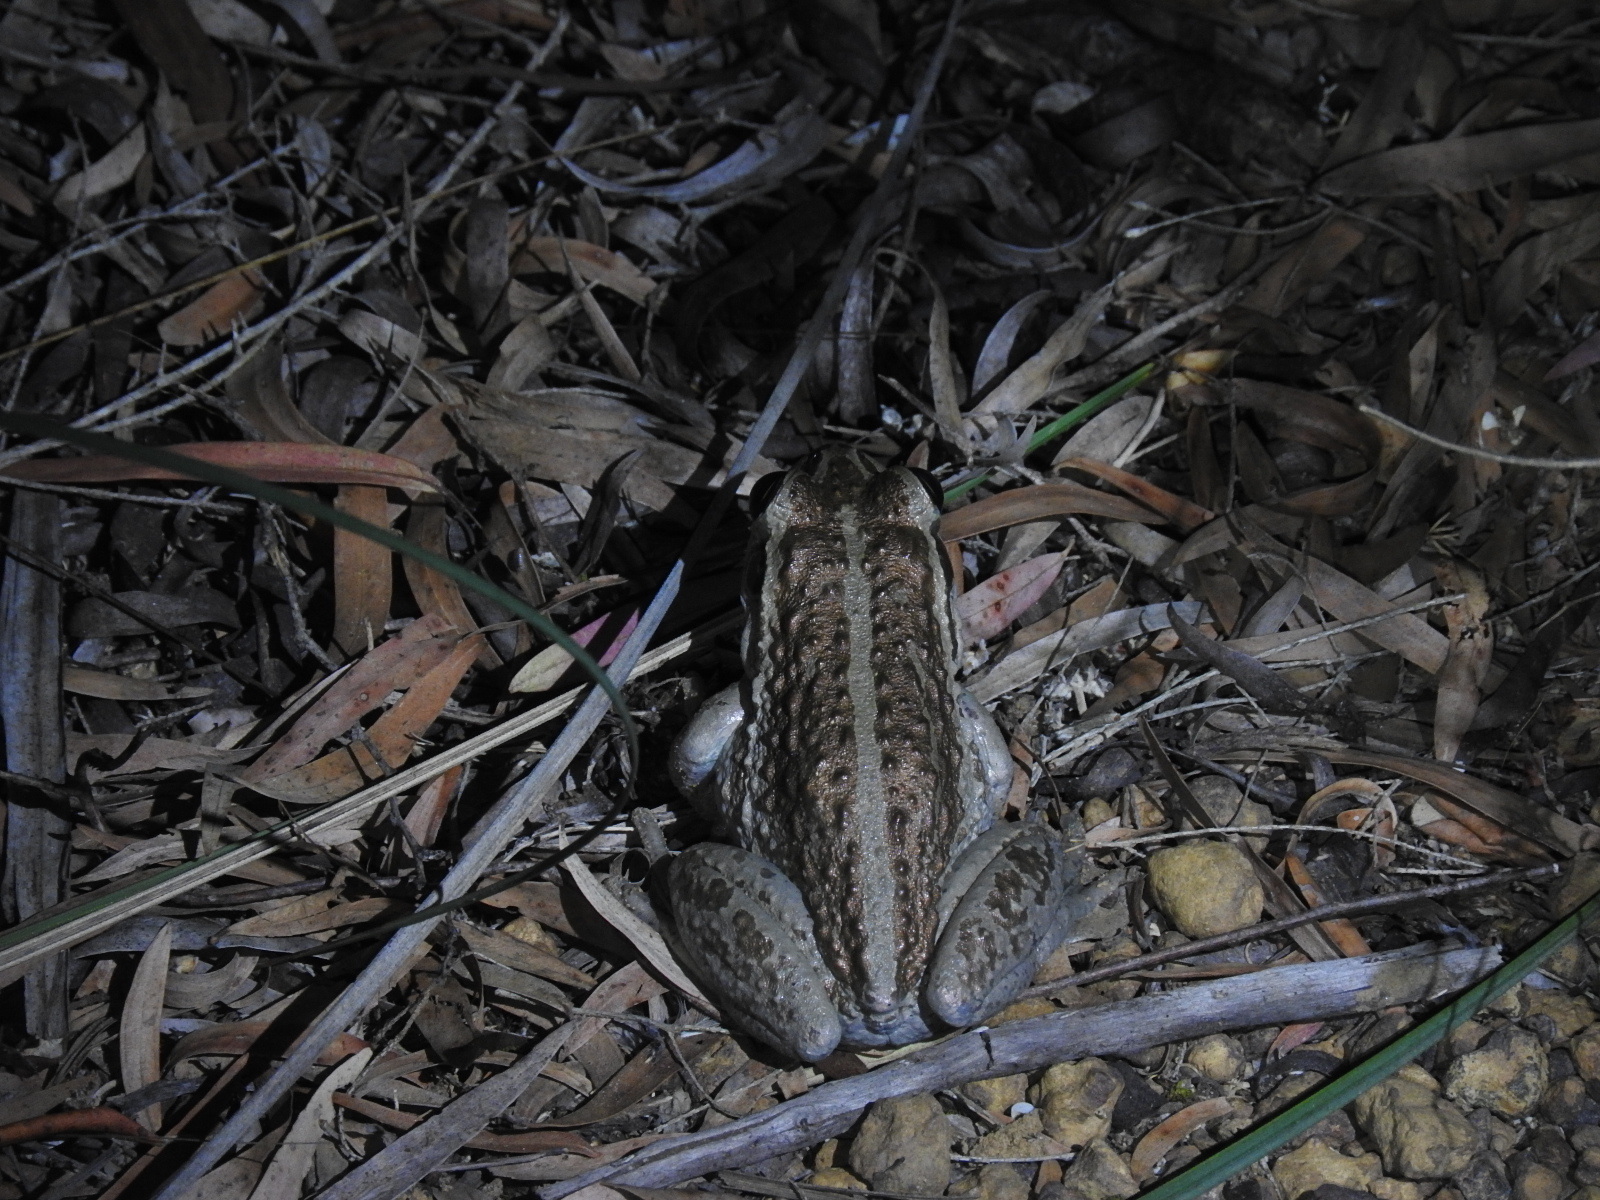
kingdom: Animalia
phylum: Chordata
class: Amphibia
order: Anura
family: Pelodryadidae
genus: Ranoidea
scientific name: Ranoidea moorei
